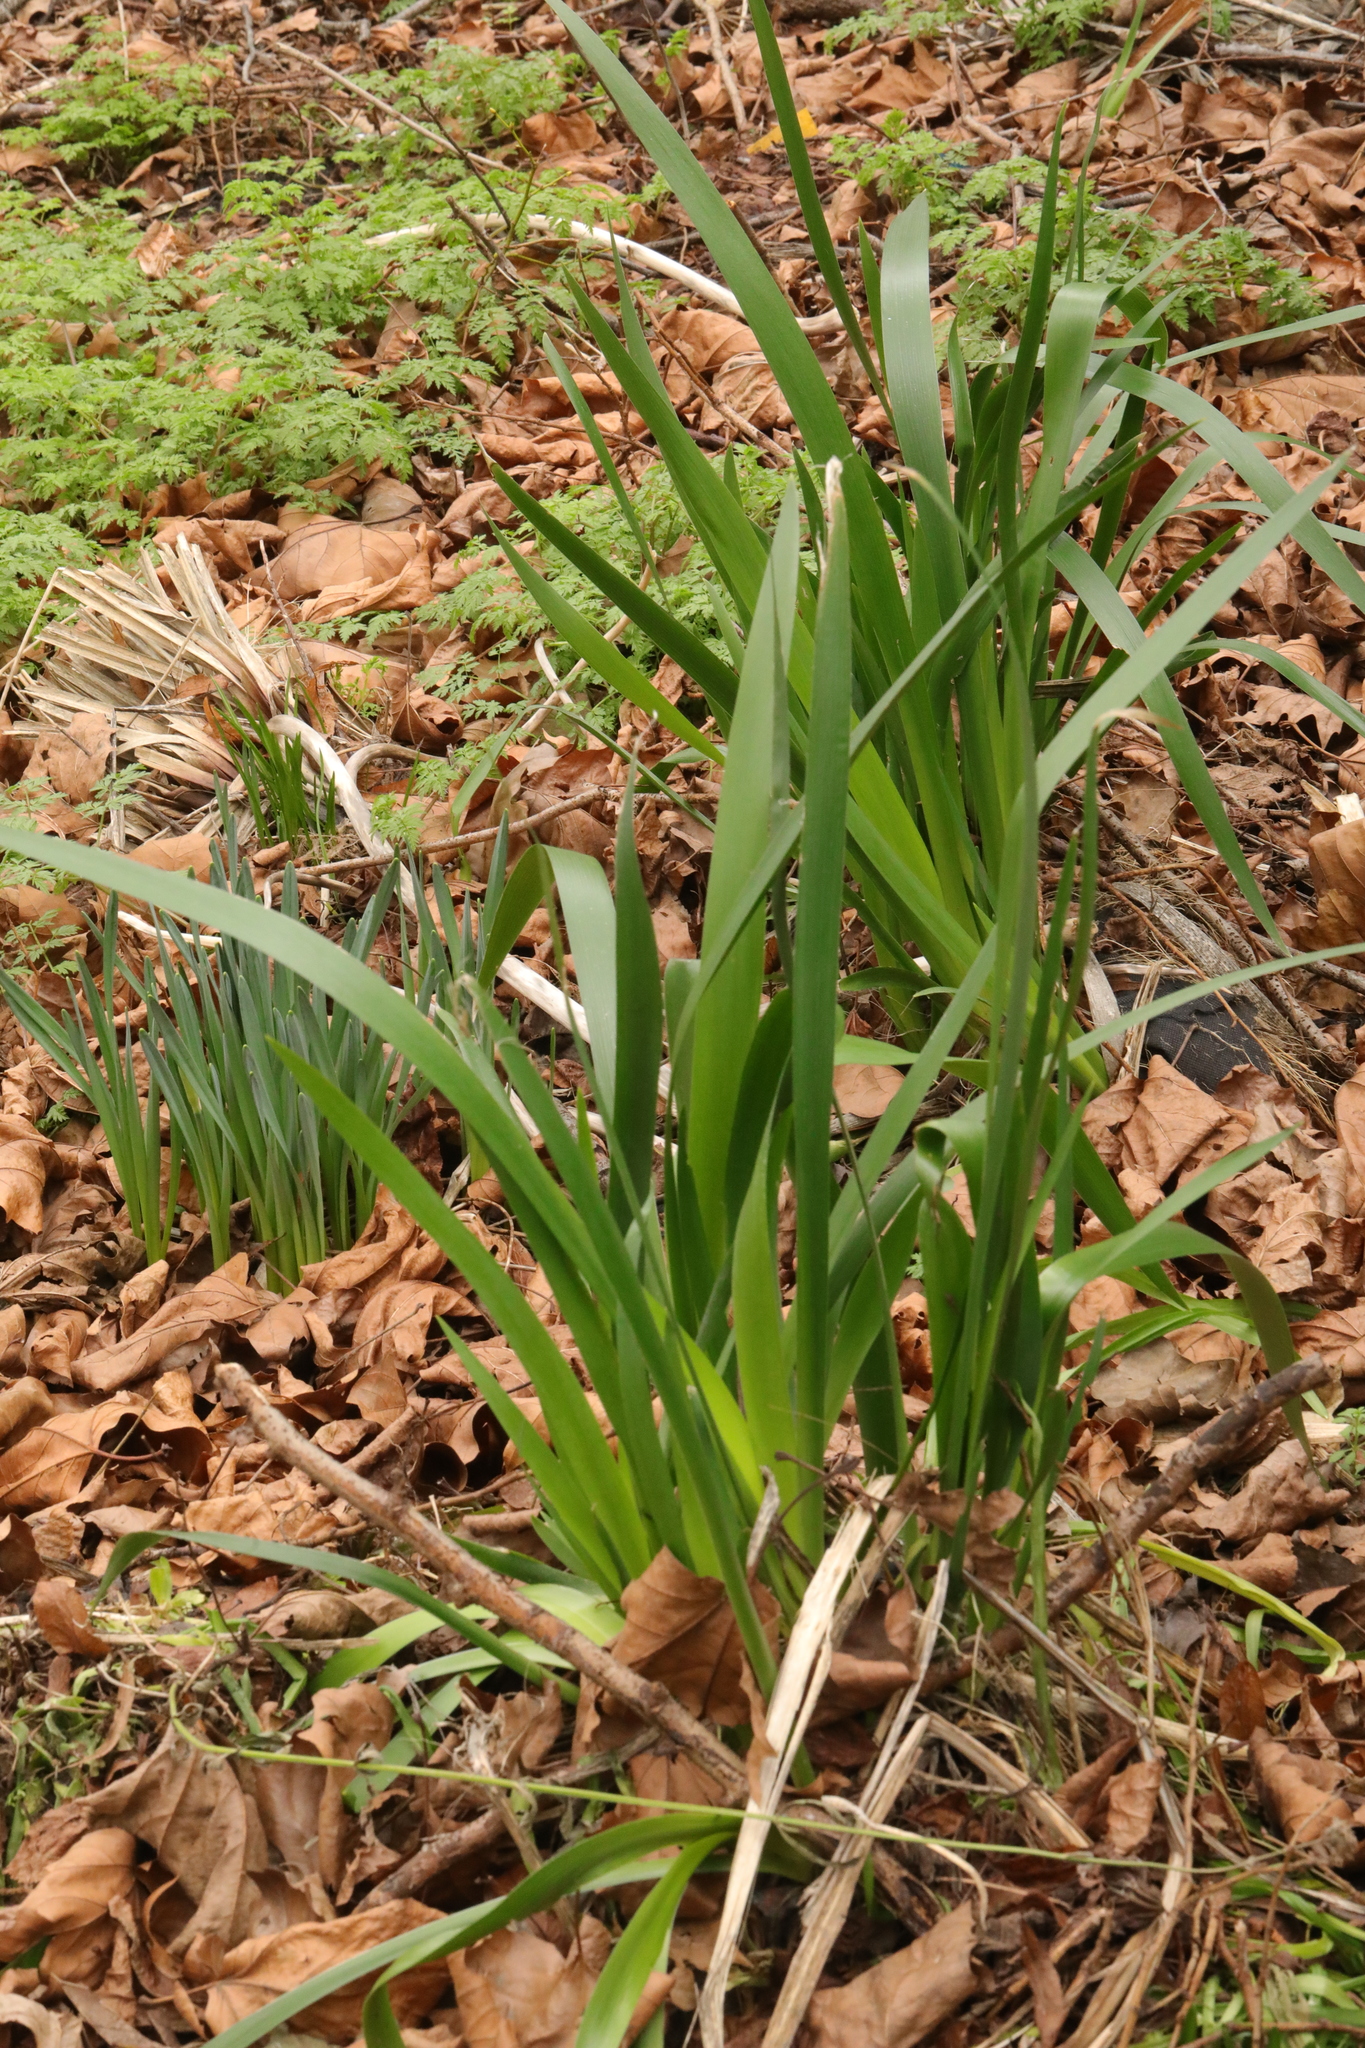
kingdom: Plantae
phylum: Tracheophyta
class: Liliopsida
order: Asparagales
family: Iridaceae
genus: Iris
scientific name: Iris foetidissima
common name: Stinking iris
